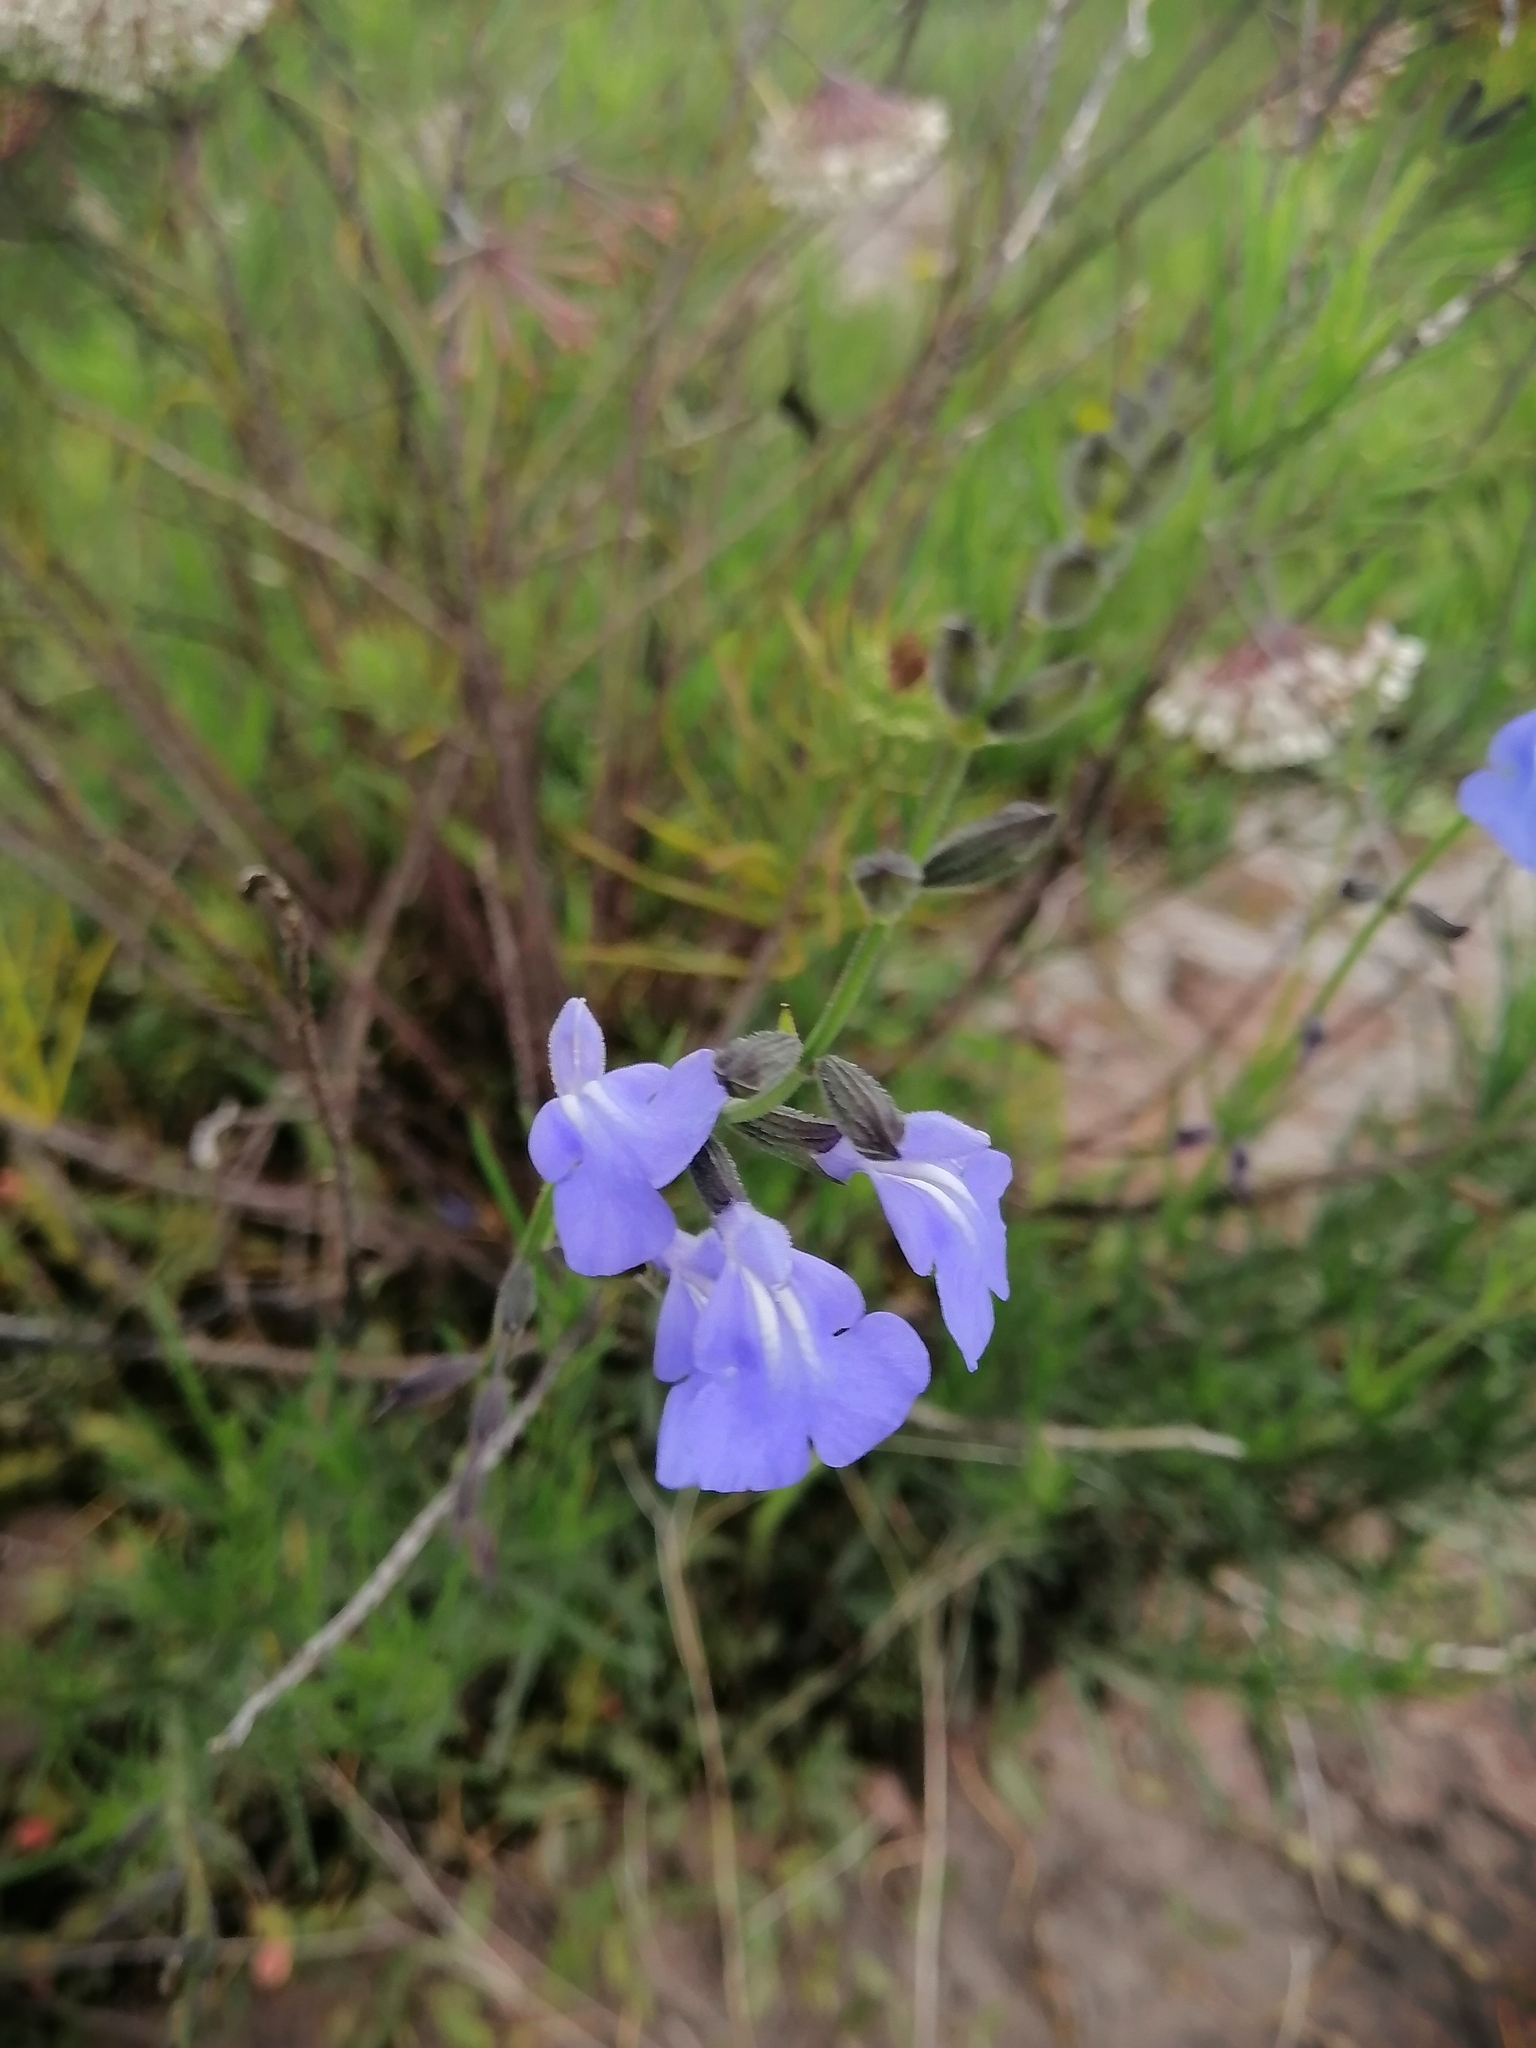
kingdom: Plantae
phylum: Tracheophyta
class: Magnoliopsida
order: Lamiales
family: Lamiaceae
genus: Salvia
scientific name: Salvia reptans
